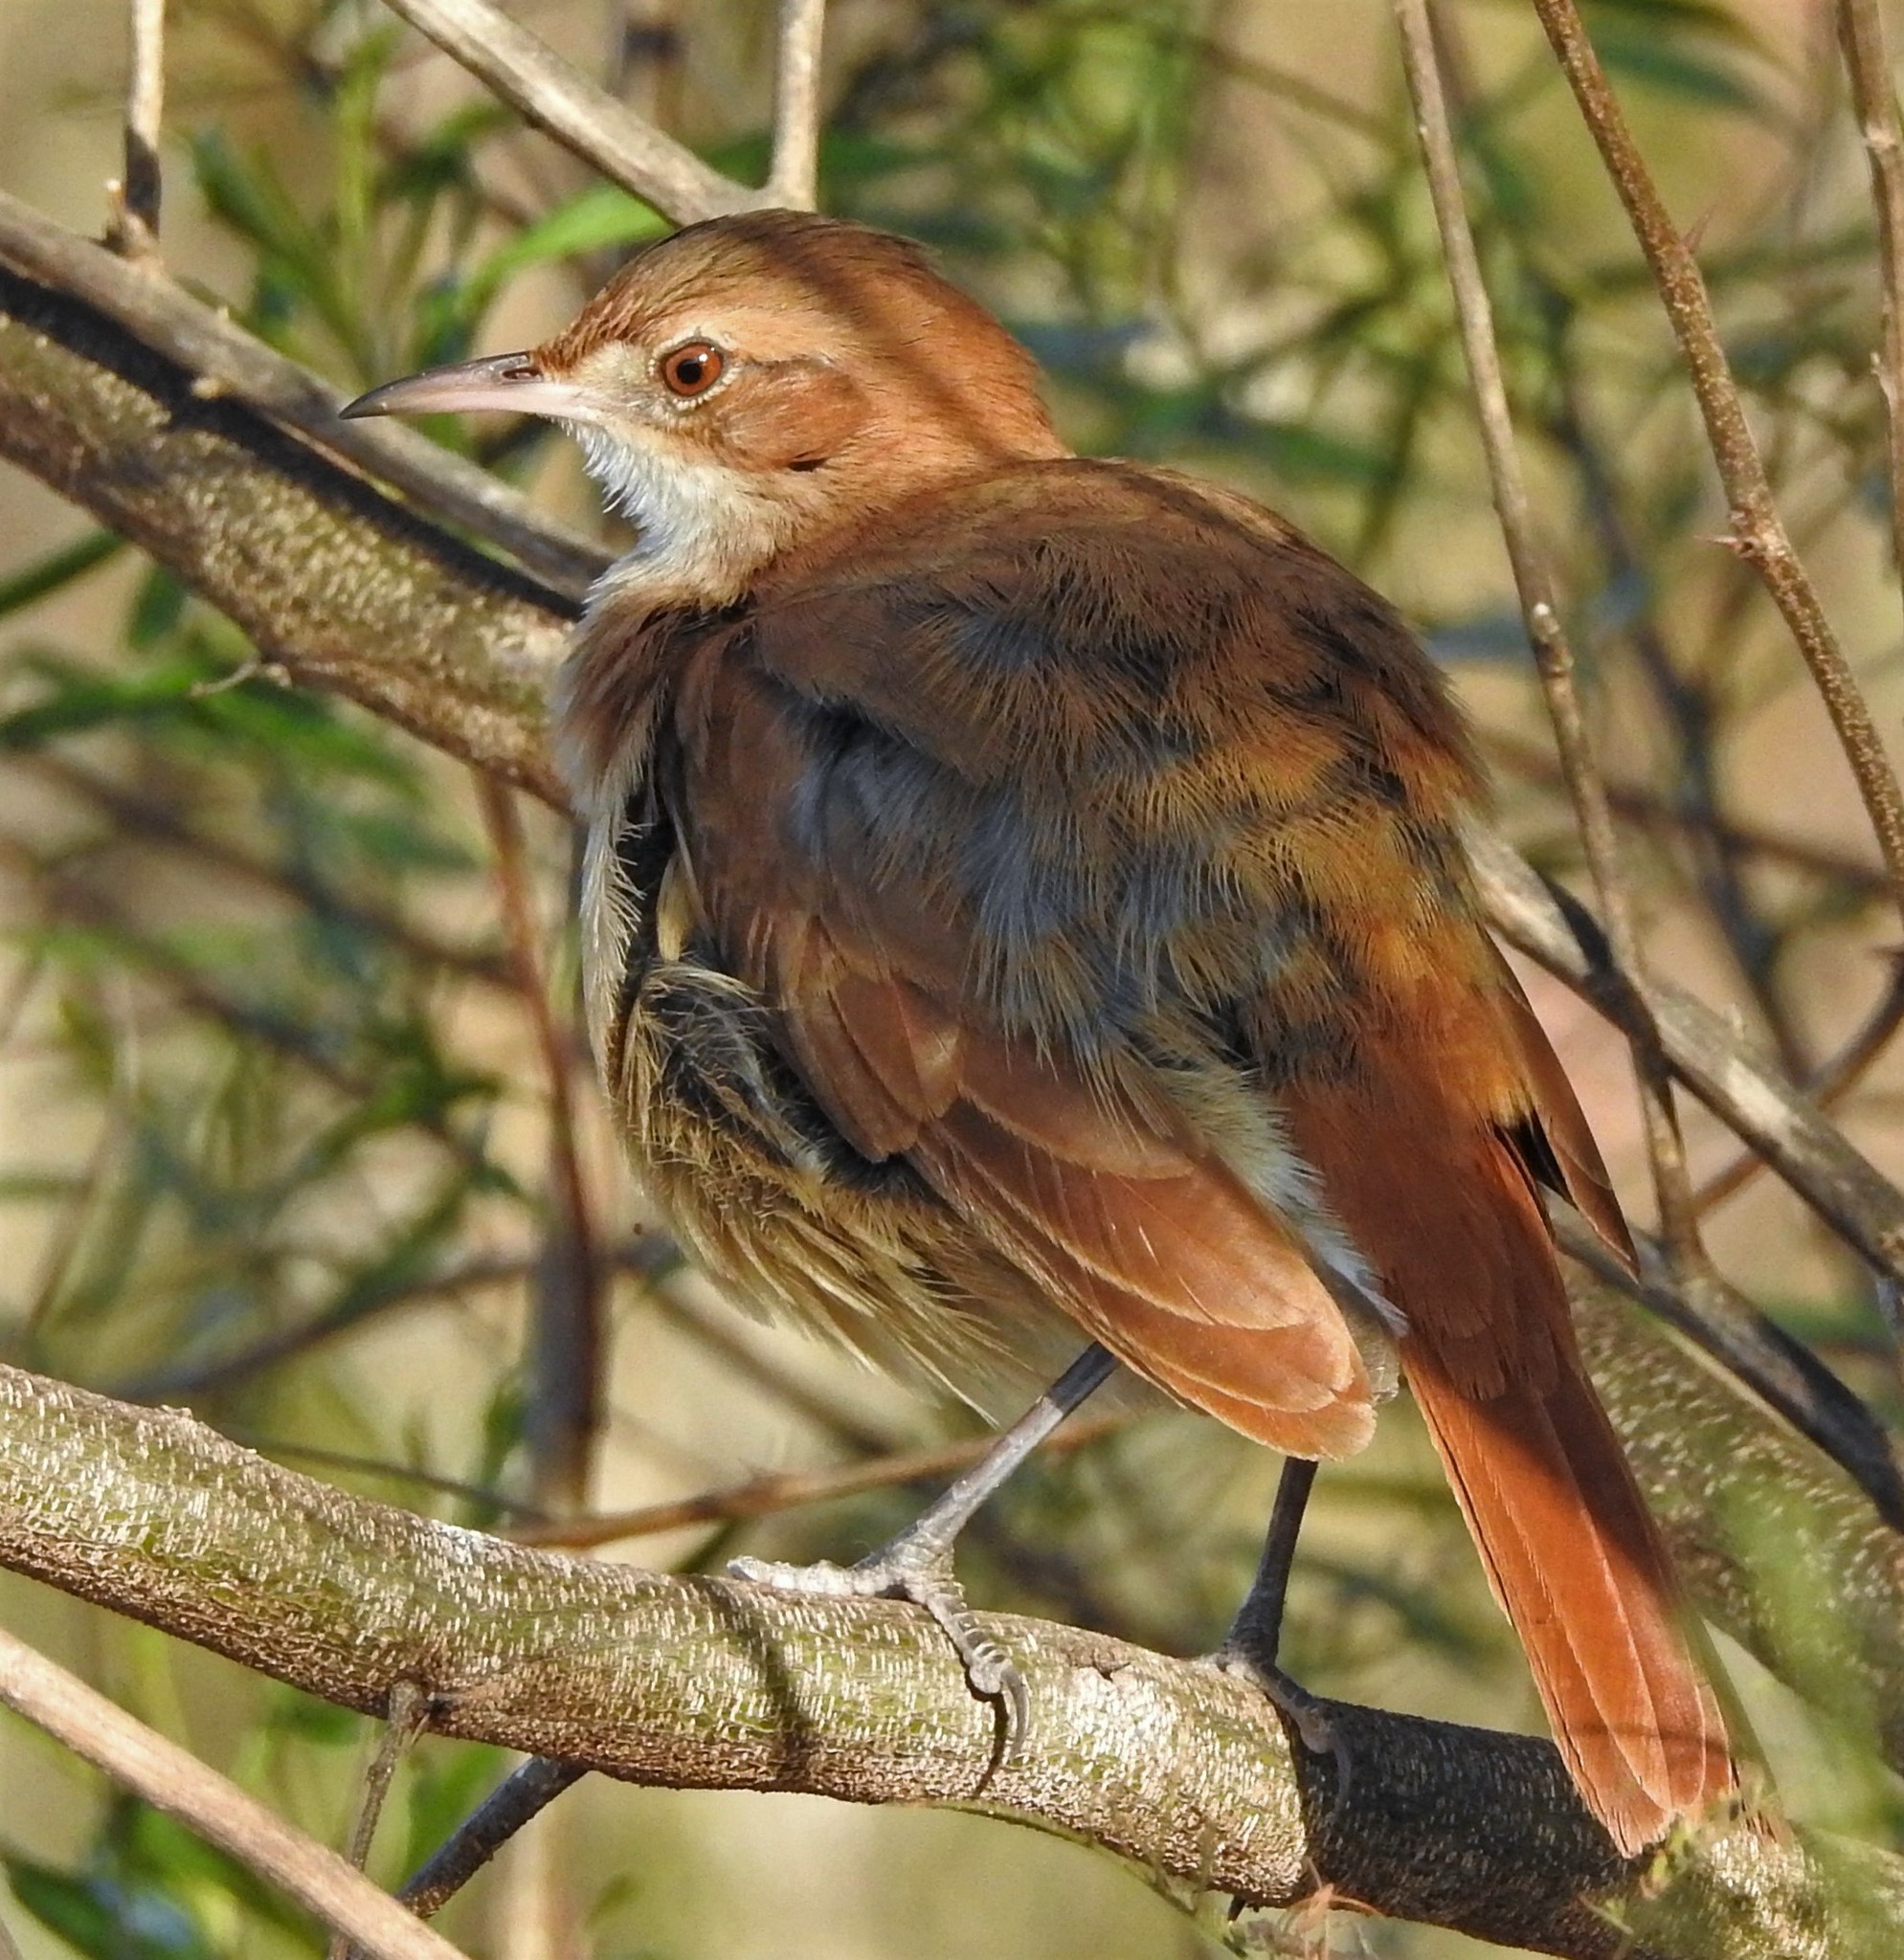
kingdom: Animalia
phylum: Chordata
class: Aves
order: Passeriformes
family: Furnariidae
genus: Furnarius
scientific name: Furnarius rufus
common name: Rufous hornero
